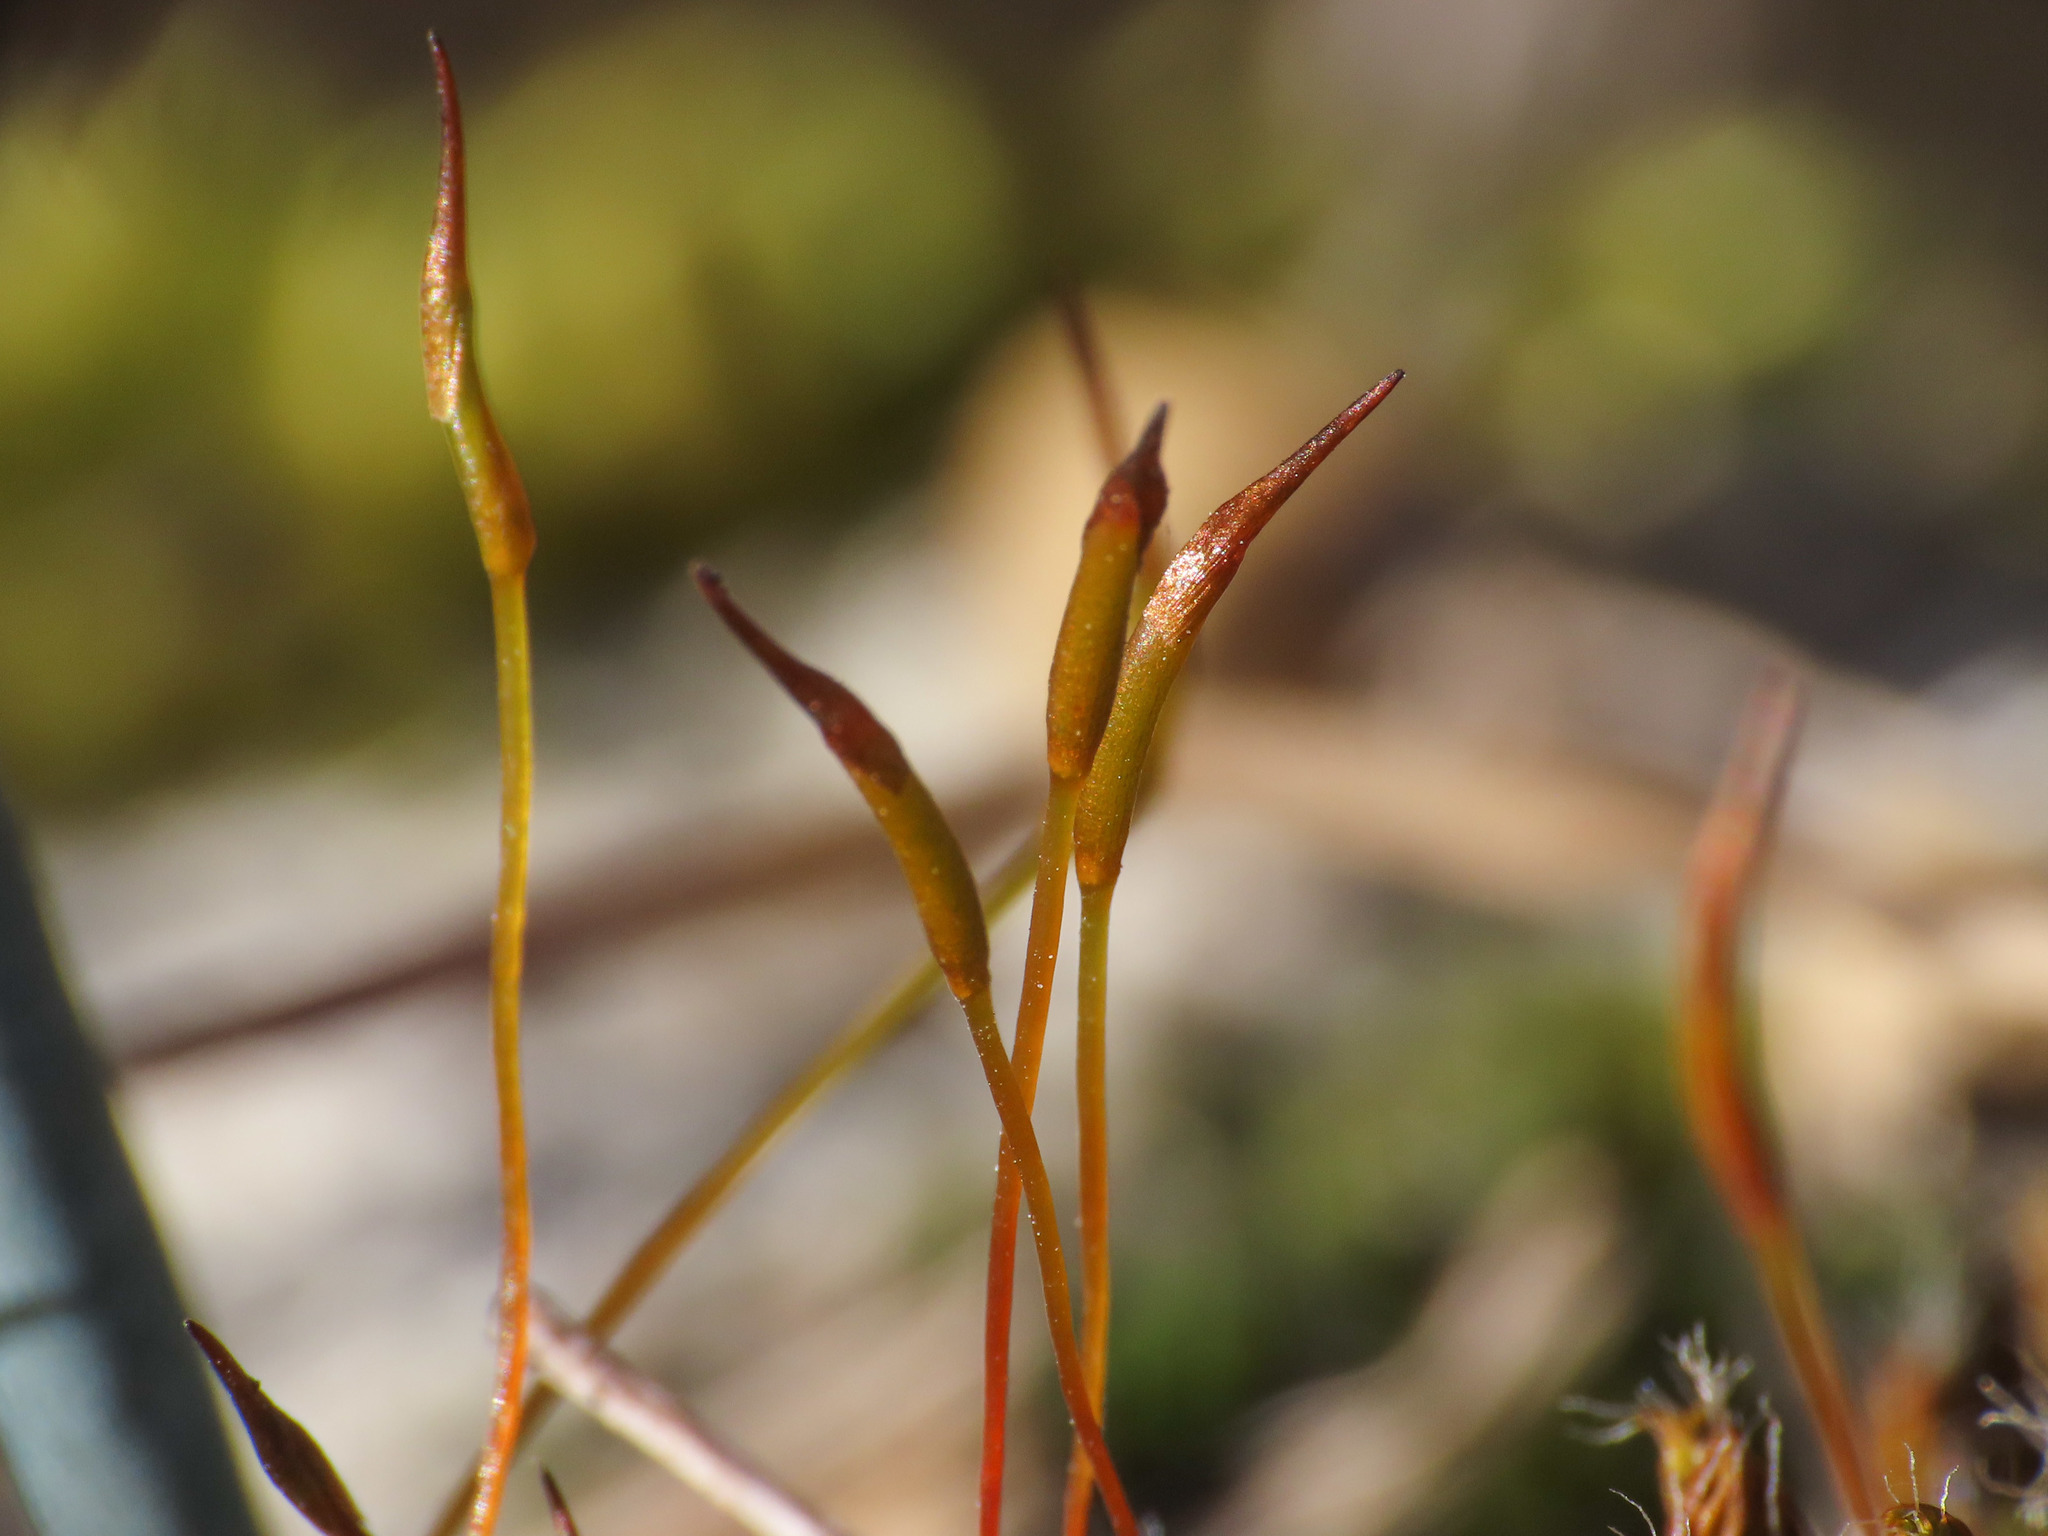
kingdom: Plantae
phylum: Bryophyta
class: Bryopsida
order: Pottiales
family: Pottiaceae
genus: Syntrichia
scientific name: Syntrichia ruralis
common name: Sidewalk screw moss
